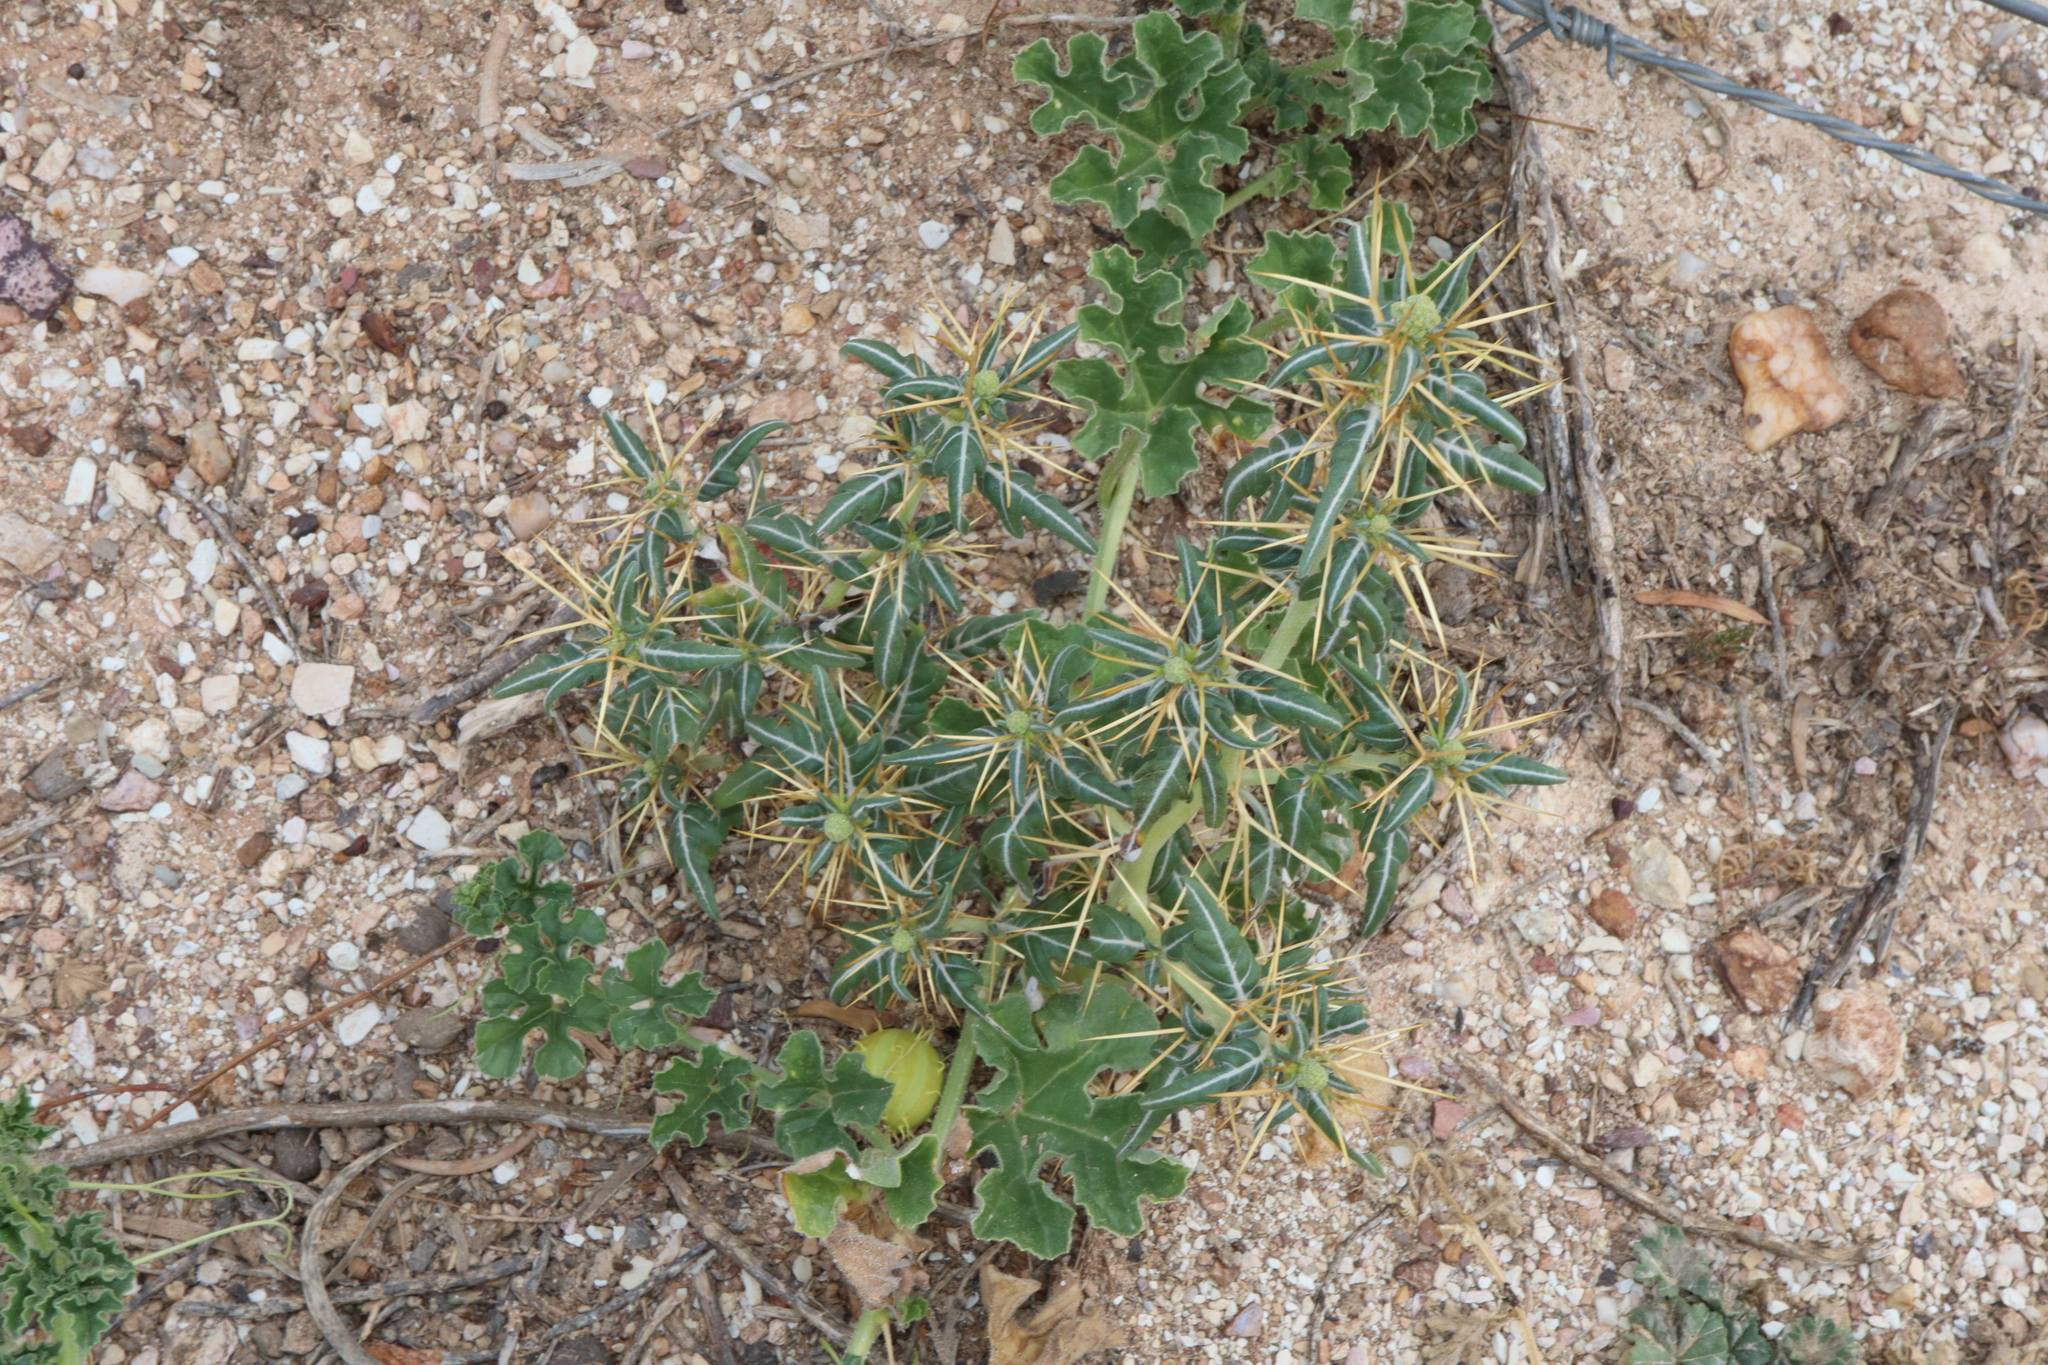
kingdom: Plantae
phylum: Tracheophyta
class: Magnoliopsida
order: Asterales
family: Asteraceae
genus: Xanthium
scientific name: Xanthium spinosum
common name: Spiny cocklebur
